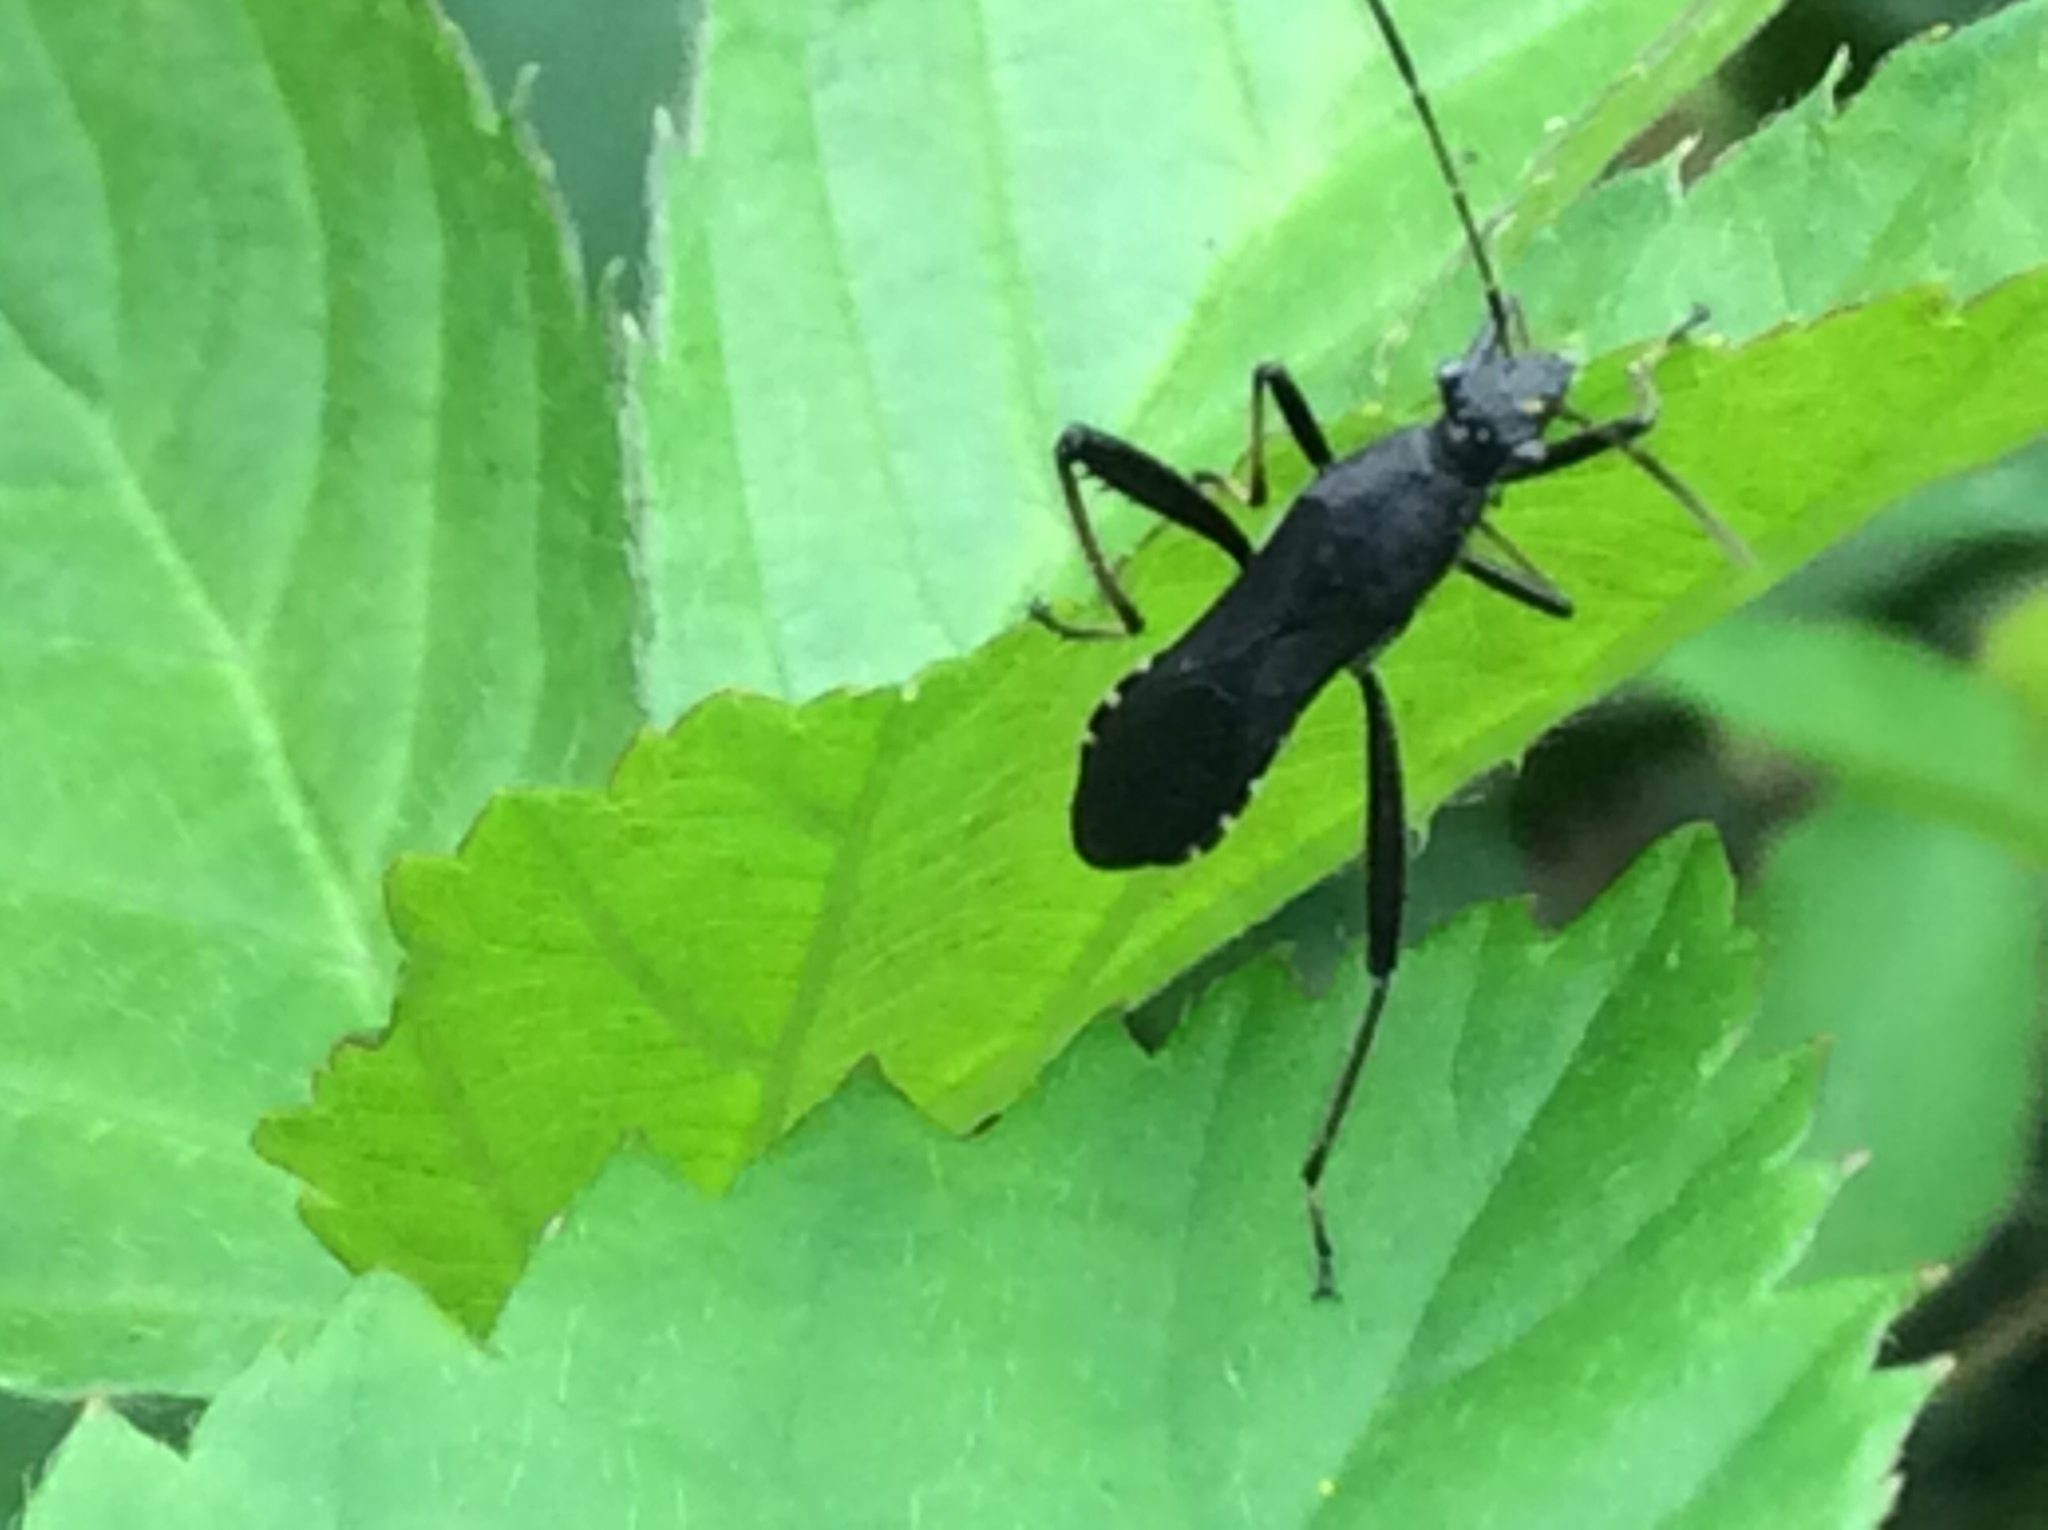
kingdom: Animalia
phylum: Arthropoda
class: Insecta
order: Hemiptera
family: Alydidae
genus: Alydus
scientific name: Alydus eurinus
